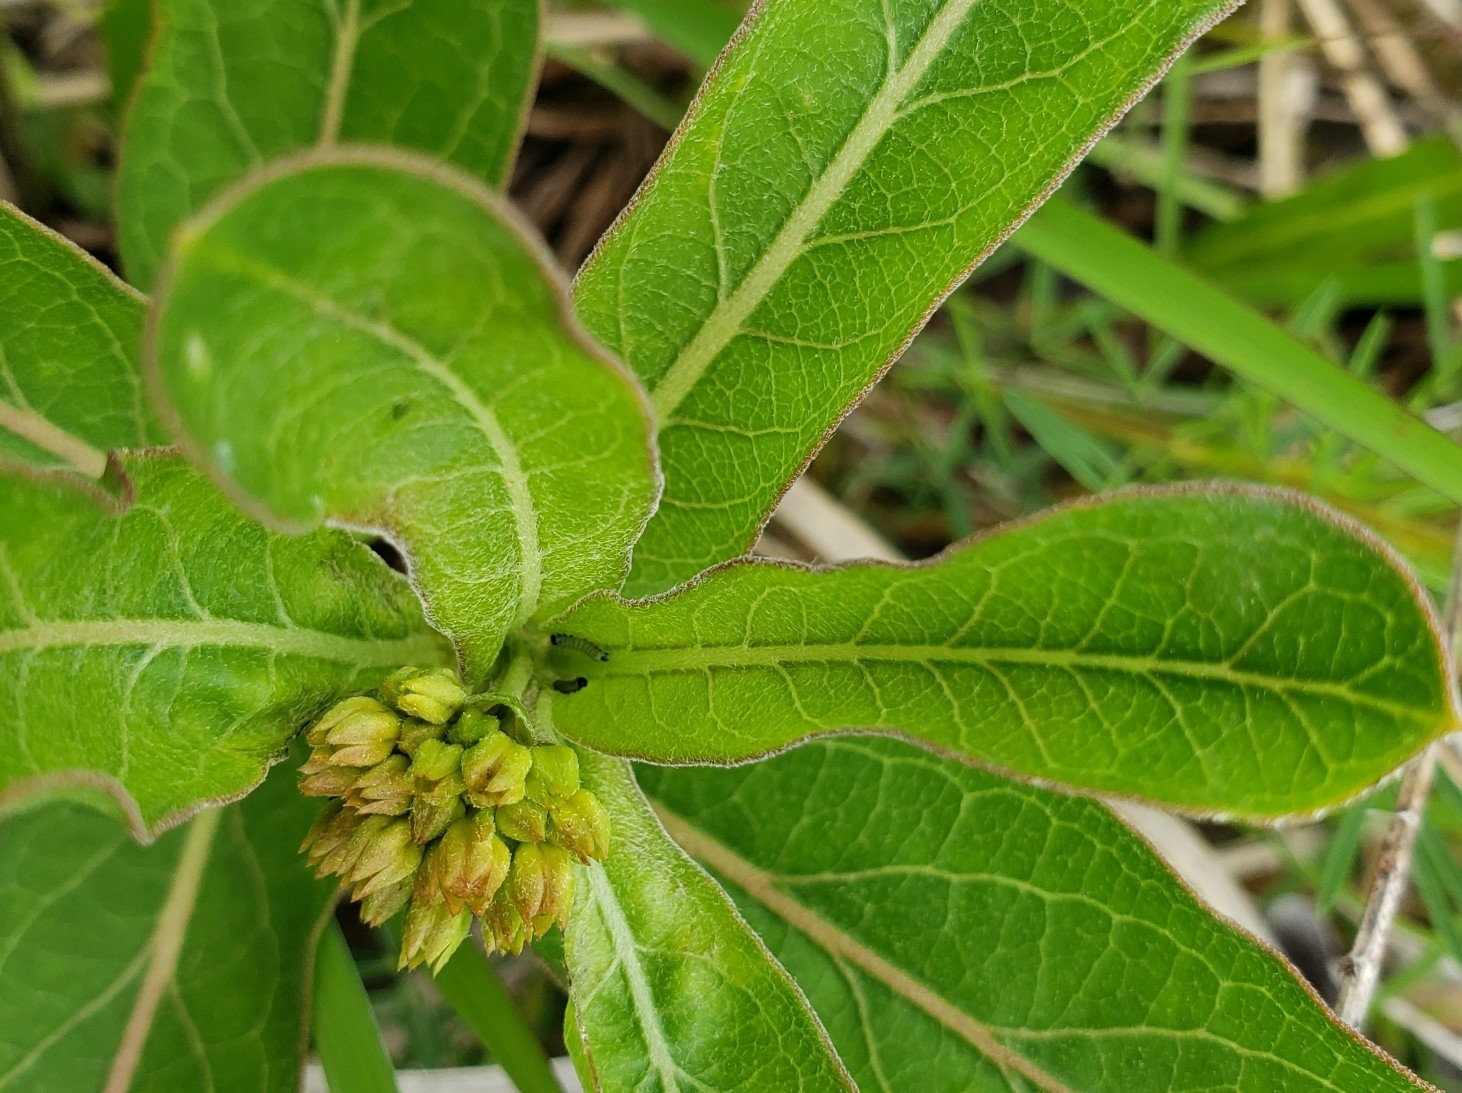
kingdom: Animalia
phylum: Arthropoda
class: Insecta
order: Lepidoptera
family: Nymphalidae
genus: Danaus
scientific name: Danaus plexippus
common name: Monarch
